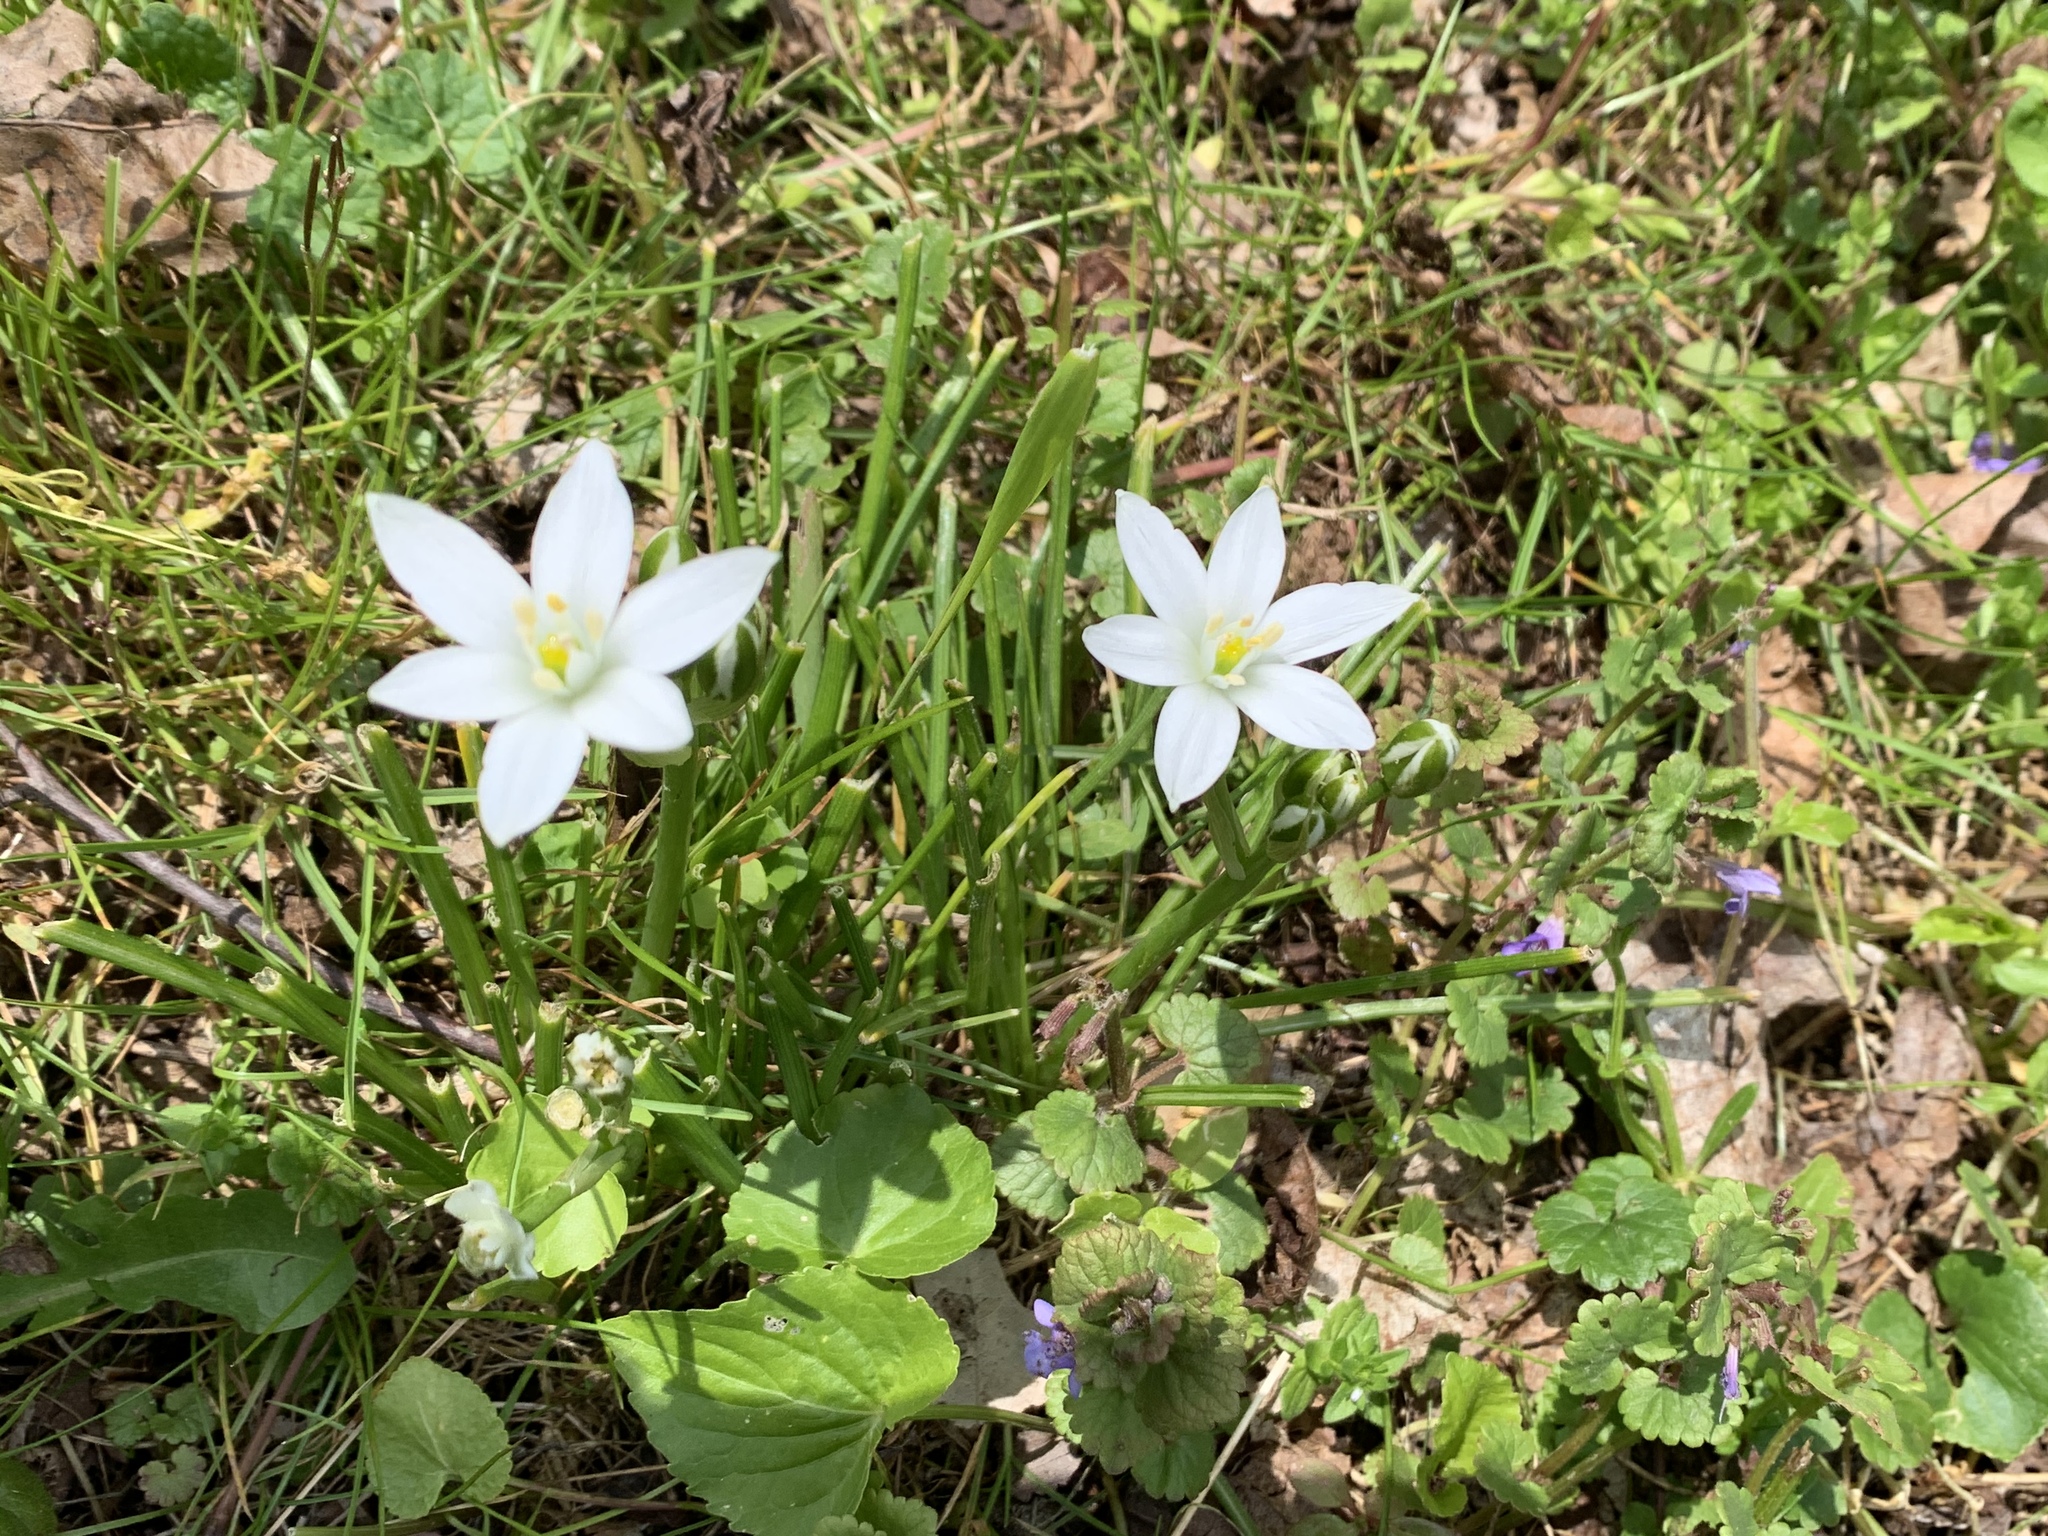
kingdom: Plantae
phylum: Tracheophyta
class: Liliopsida
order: Asparagales
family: Asparagaceae
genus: Ornithogalum
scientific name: Ornithogalum umbellatum
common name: Garden star-of-bethlehem
